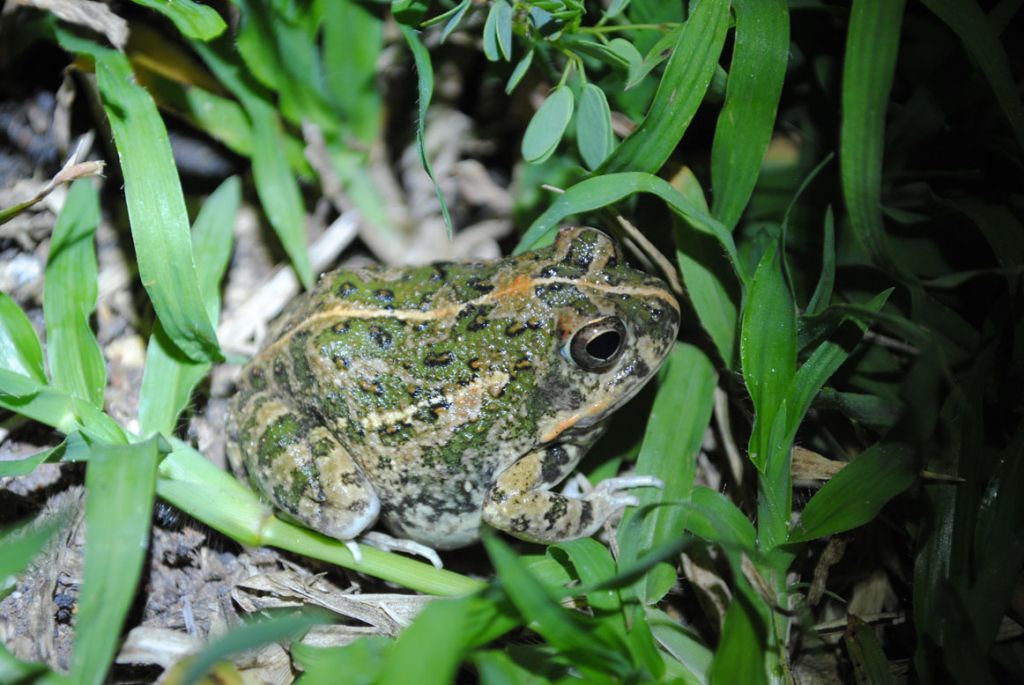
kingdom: Animalia
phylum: Chordata
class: Amphibia
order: Anura
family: Pyxicephalidae
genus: Tomopterna
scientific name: Tomopterna
